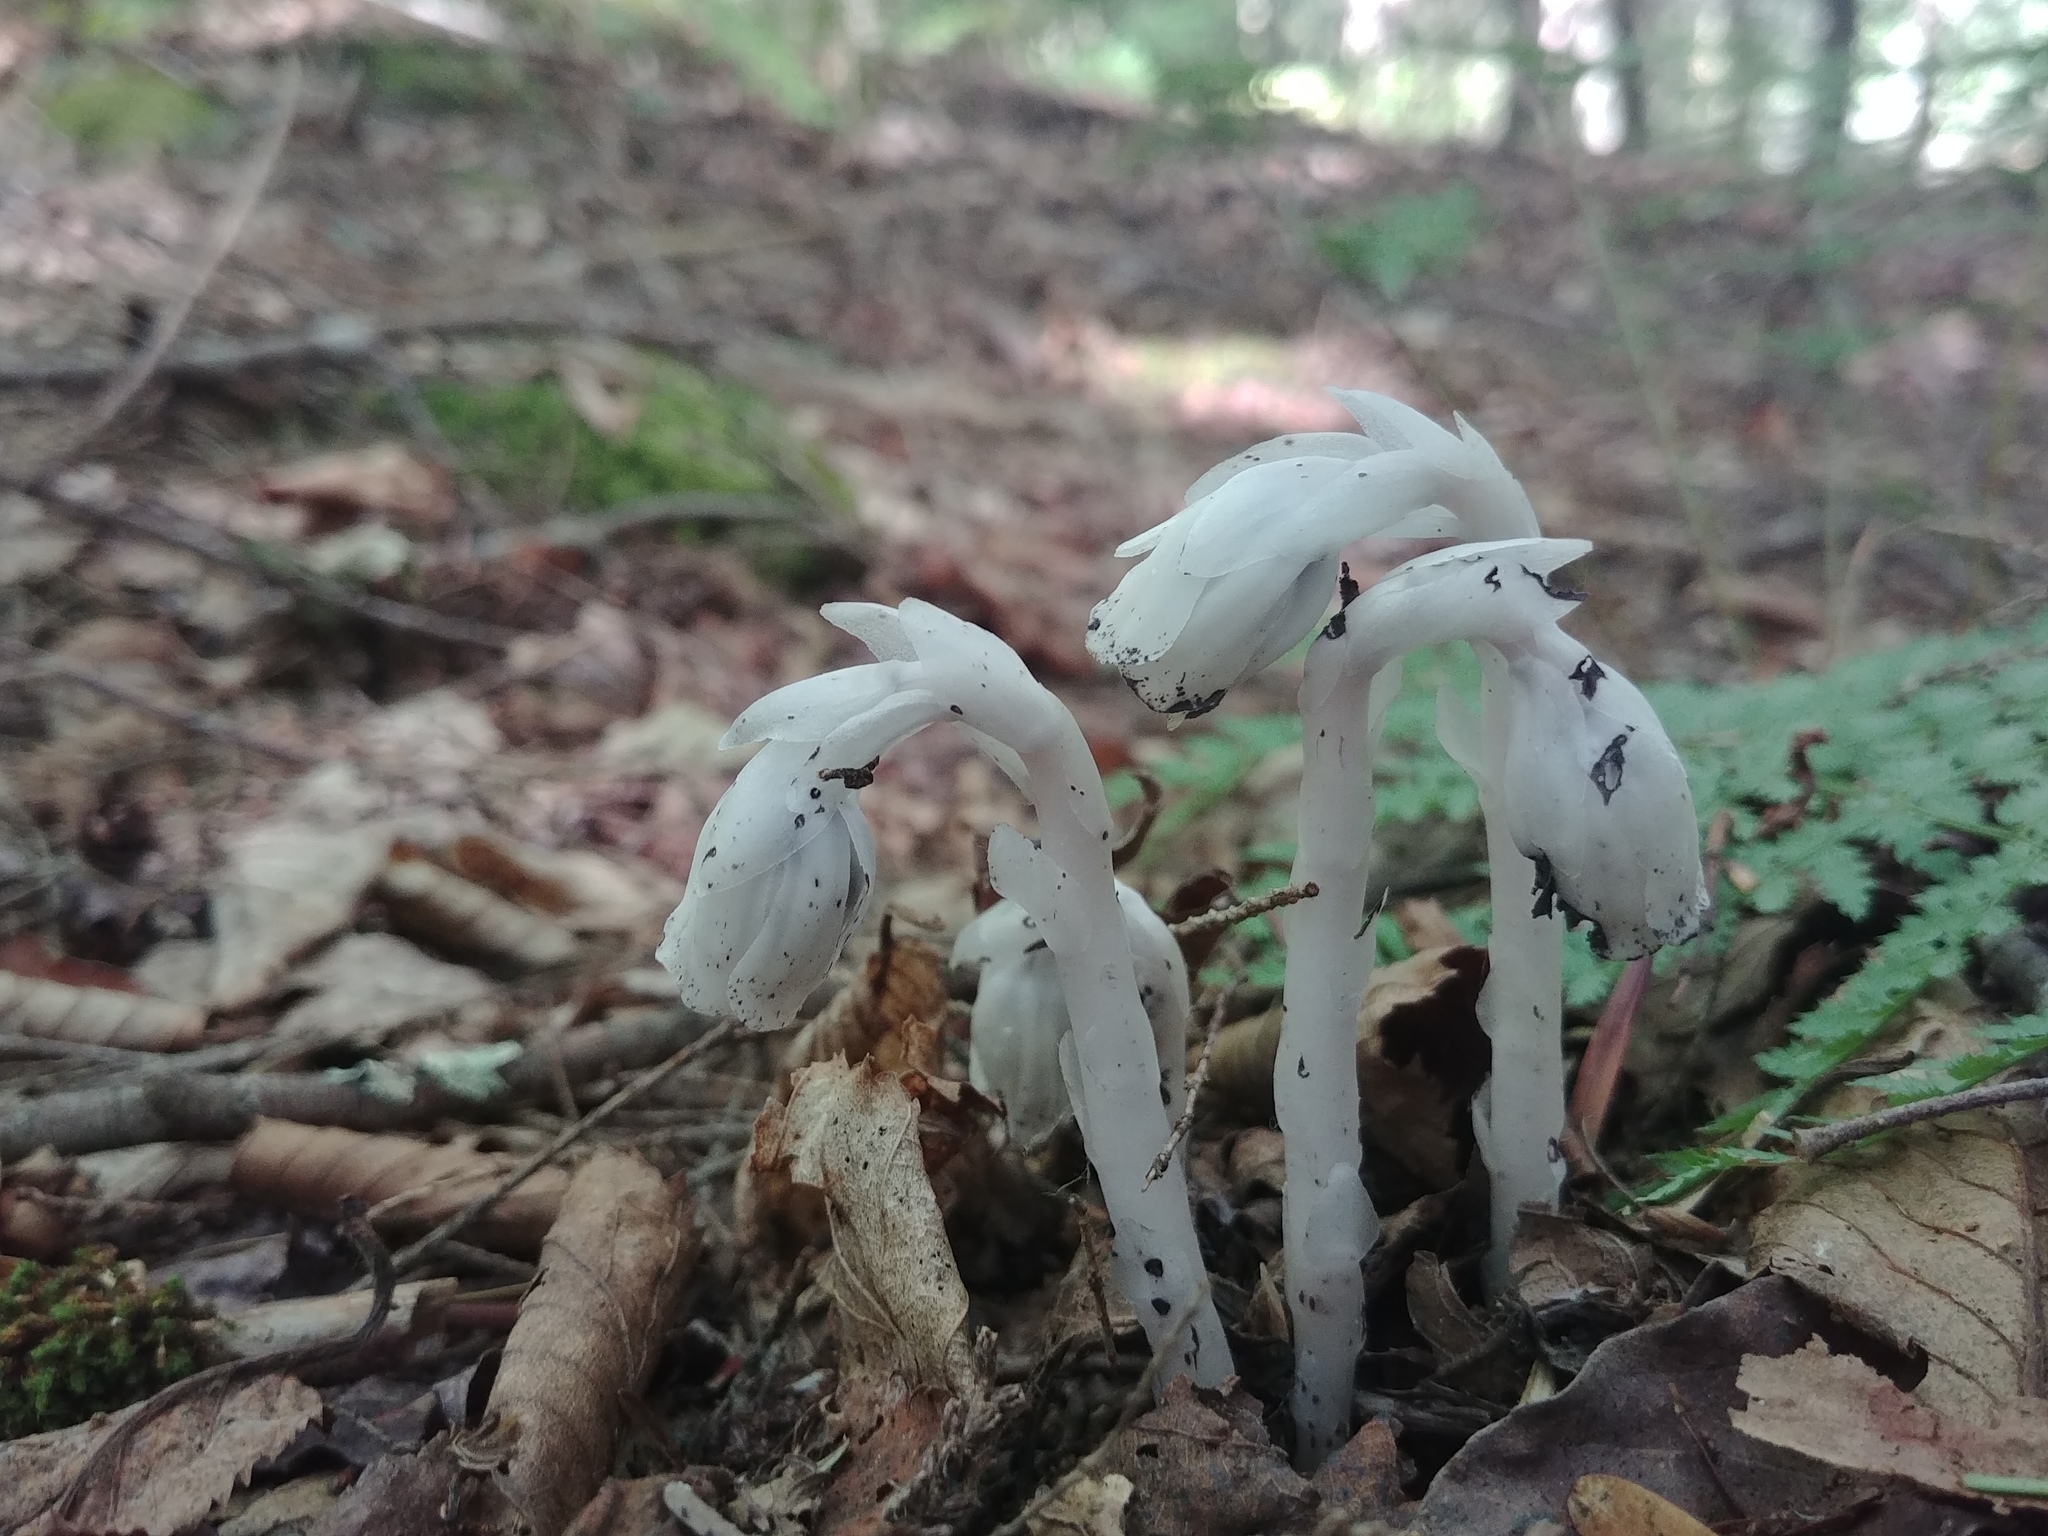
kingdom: Plantae
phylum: Tracheophyta
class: Magnoliopsida
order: Ericales
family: Ericaceae
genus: Monotropa
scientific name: Monotropa uniflora
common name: Convulsion root
